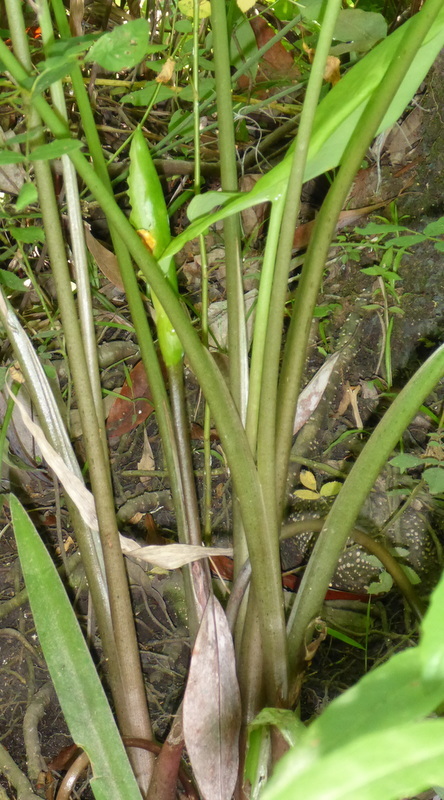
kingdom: Plantae
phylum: Tracheophyta
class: Liliopsida
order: Alismatales
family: Araceae
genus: Peltandra
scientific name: Peltandra virginica
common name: Arrow arum
